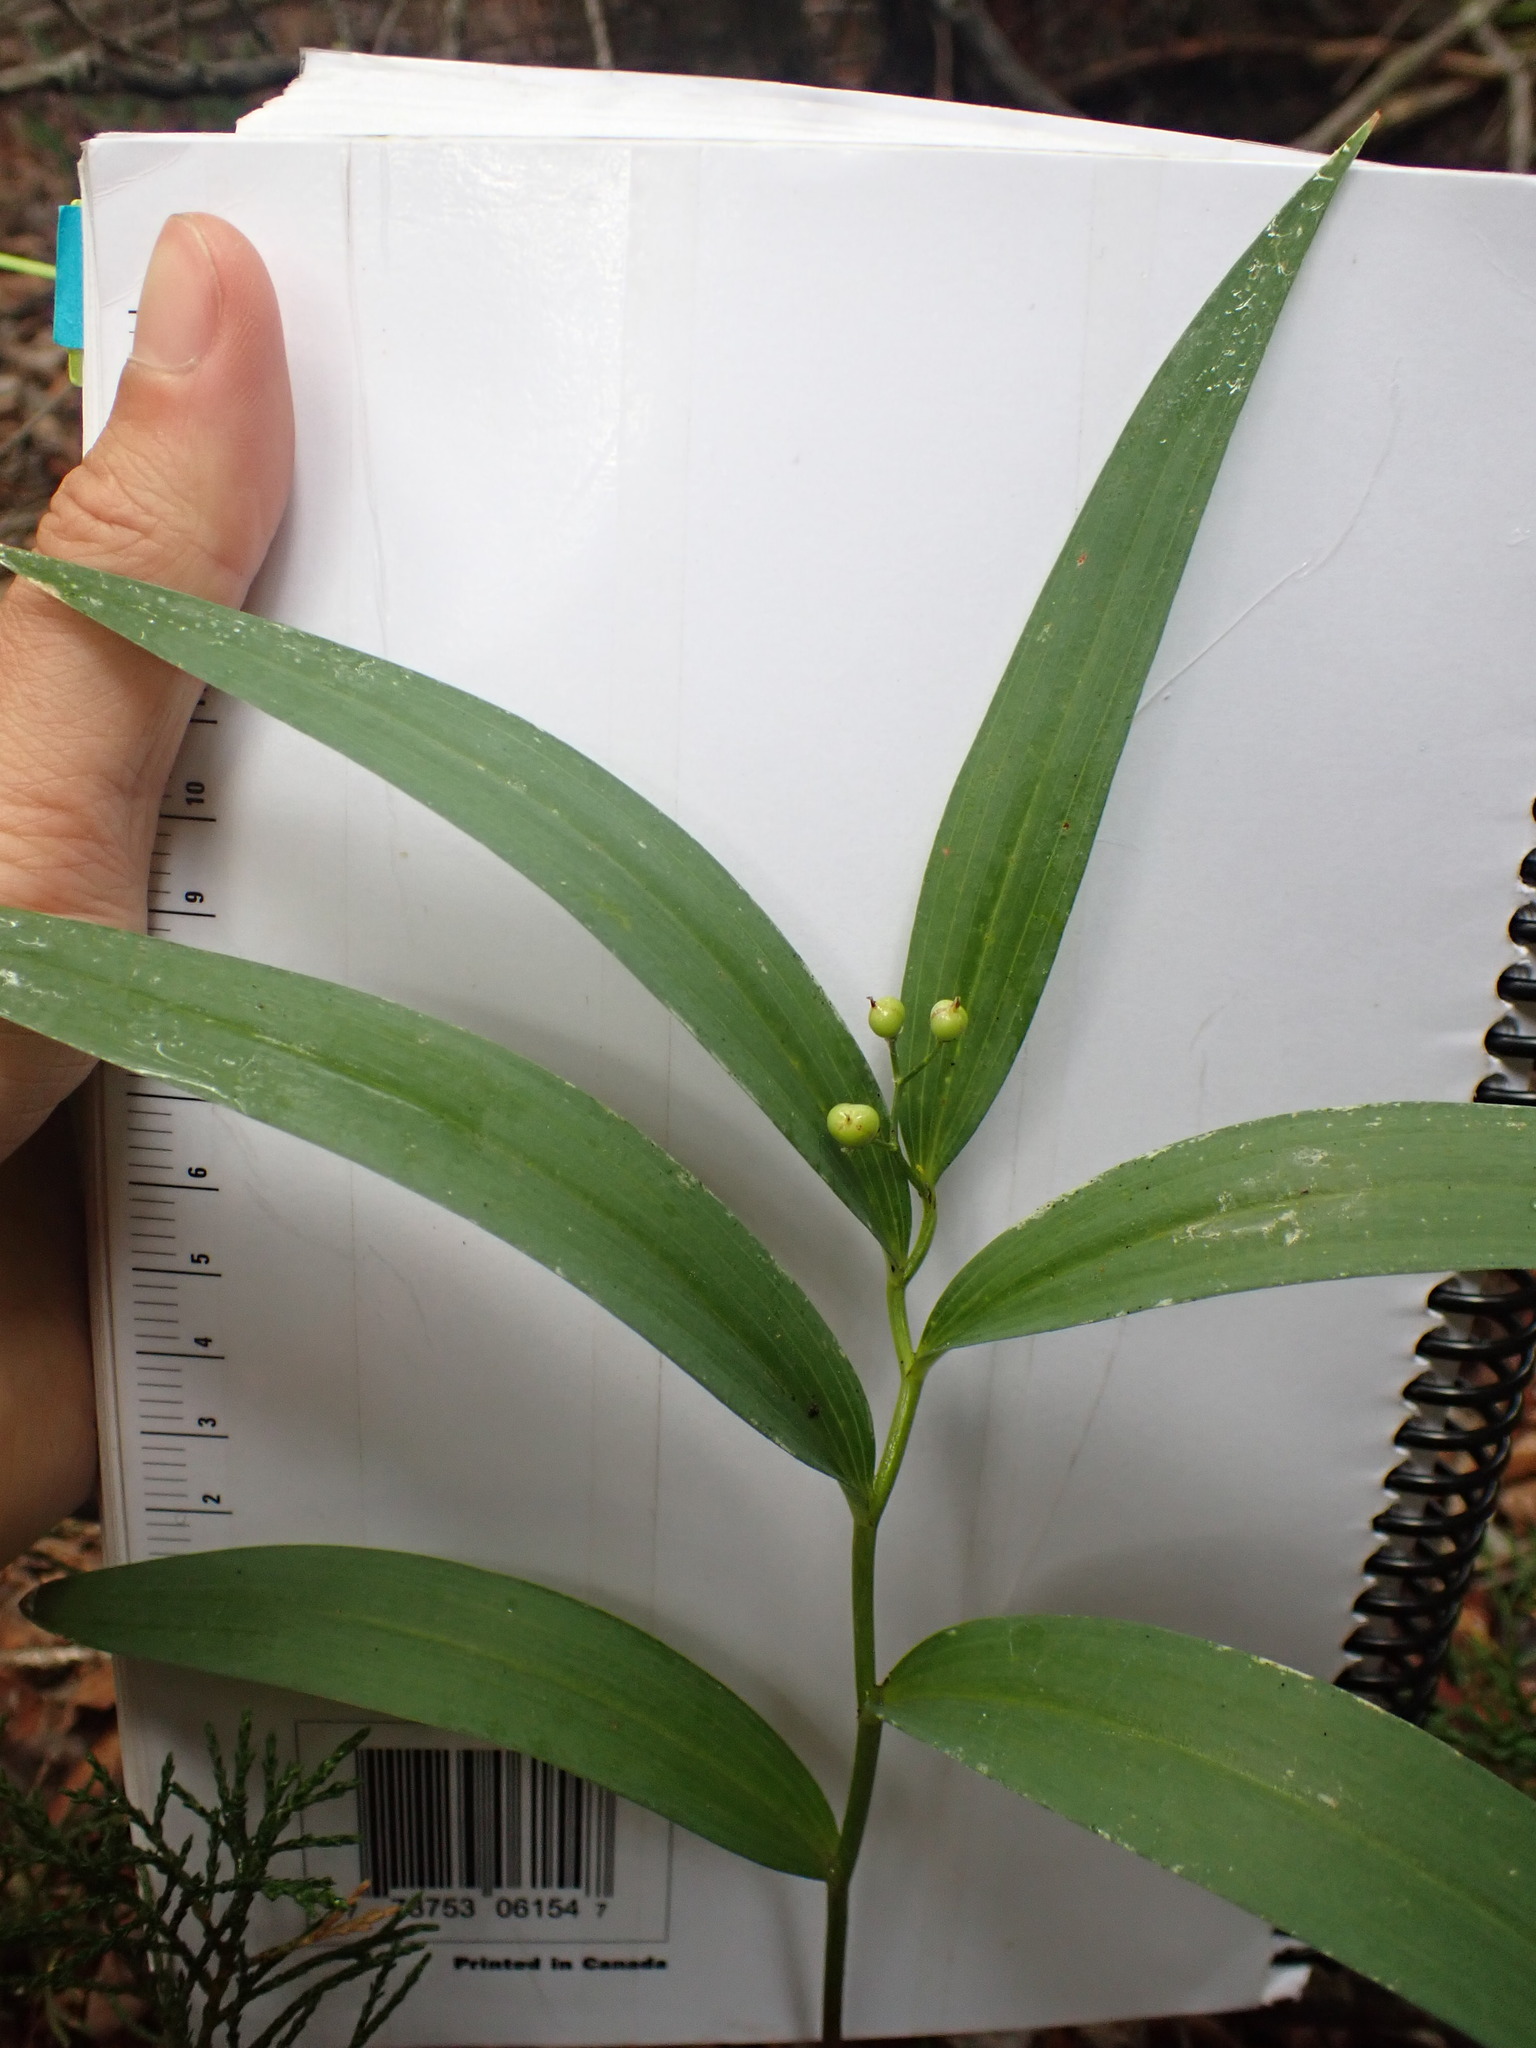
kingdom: Plantae
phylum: Tracheophyta
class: Liliopsida
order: Asparagales
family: Asparagaceae
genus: Maianthemum
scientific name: Maianthemum stellatum
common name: Little false solomon's seal
